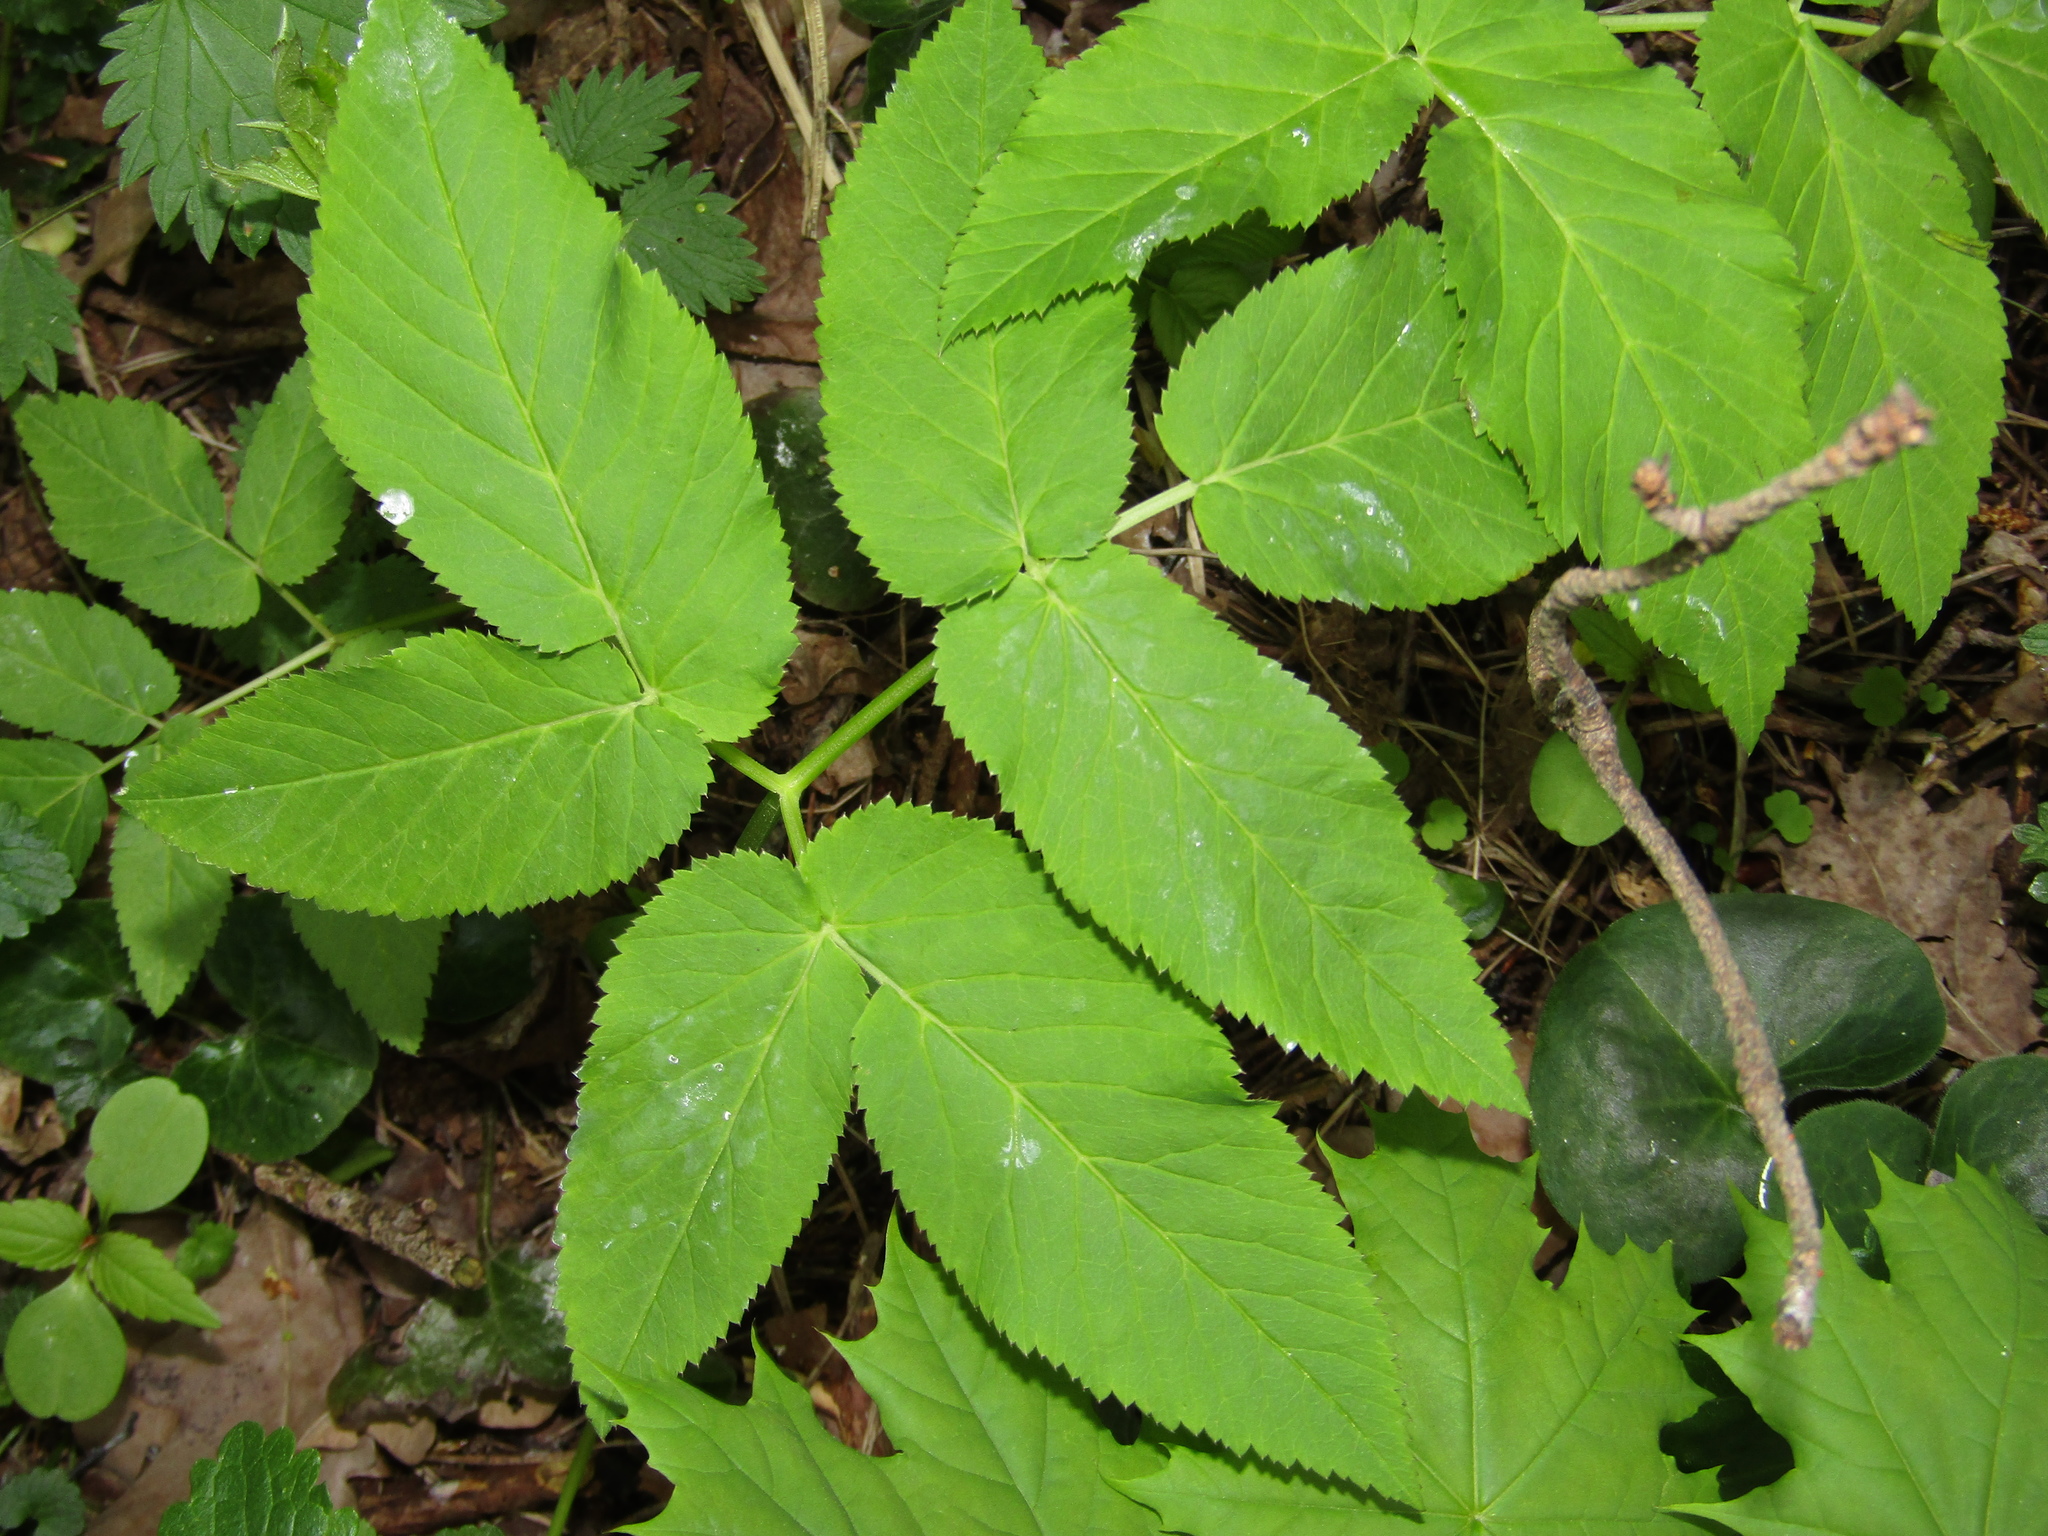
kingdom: Plantae
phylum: Tracheophyta
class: Magnoliopsida
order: Apiales
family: Apiaceae
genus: Aegopodium
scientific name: Aegopodium podagraria
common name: Ground-elder
